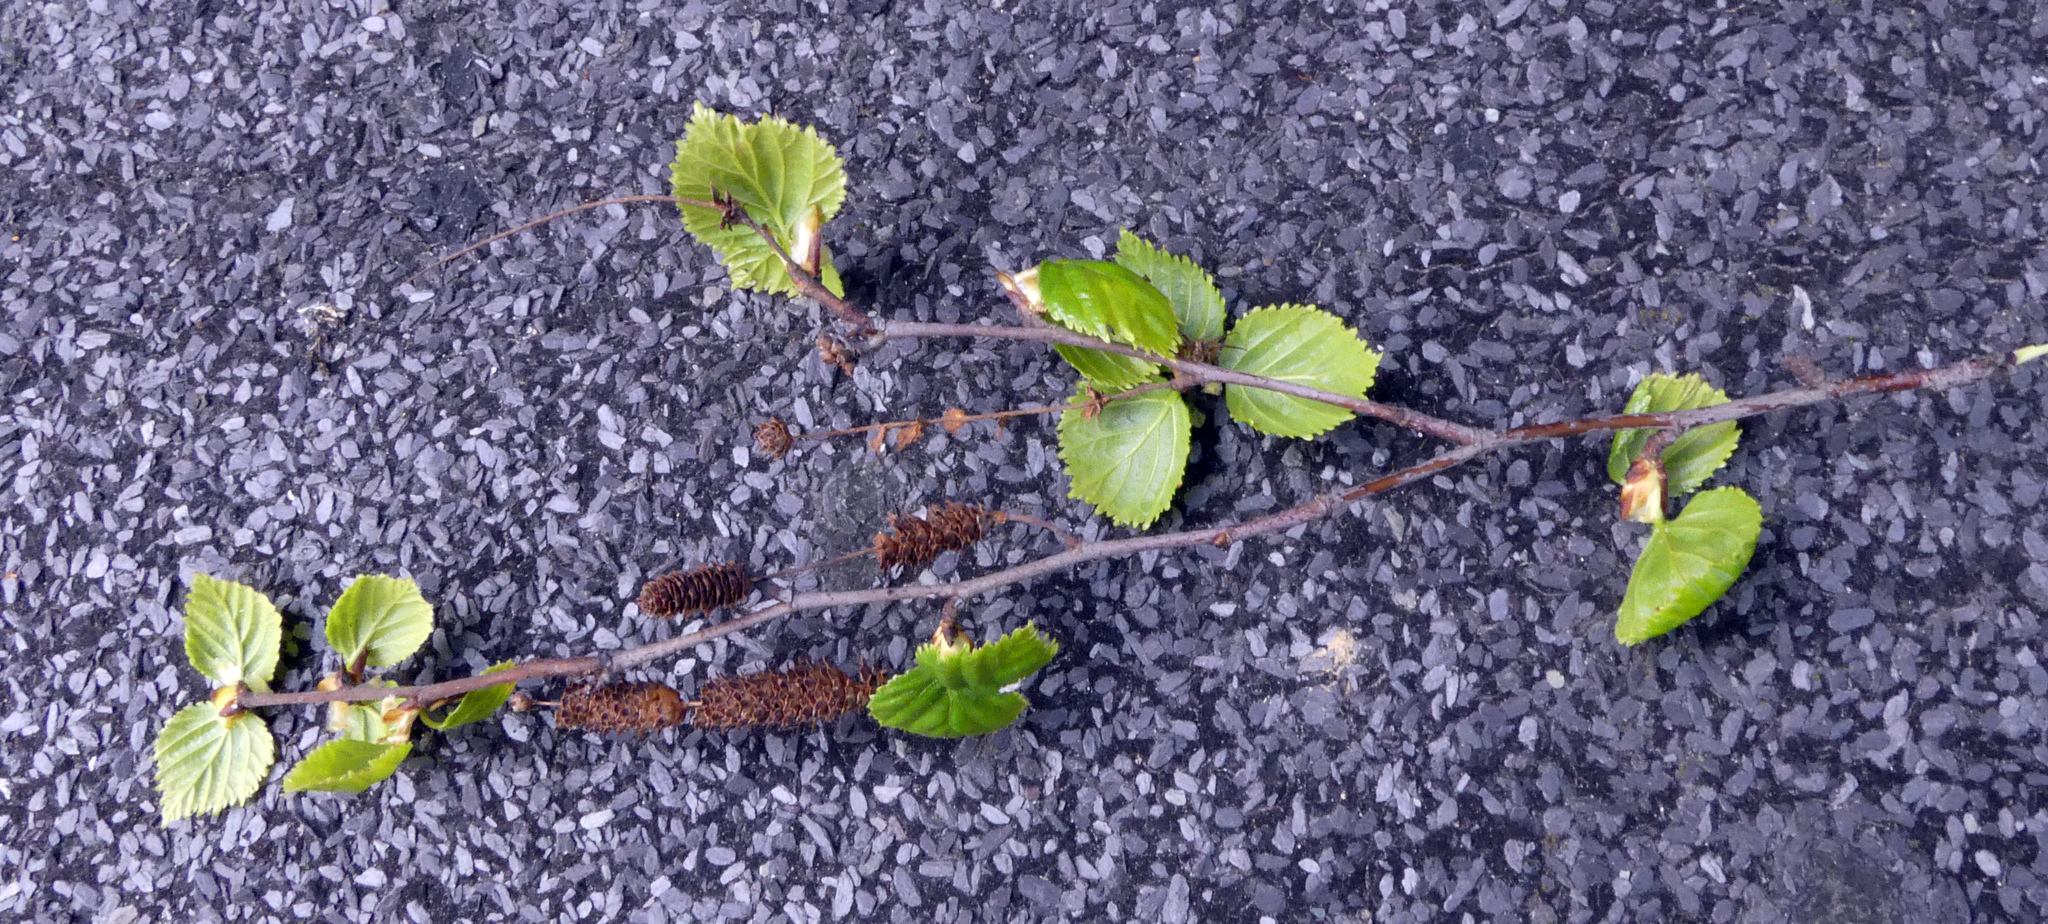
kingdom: Plantae
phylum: Tracheophyta
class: Magnoliopsida
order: Fagales
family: Betulaceae
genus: Betula
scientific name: Betula pubescens
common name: Downy birch
